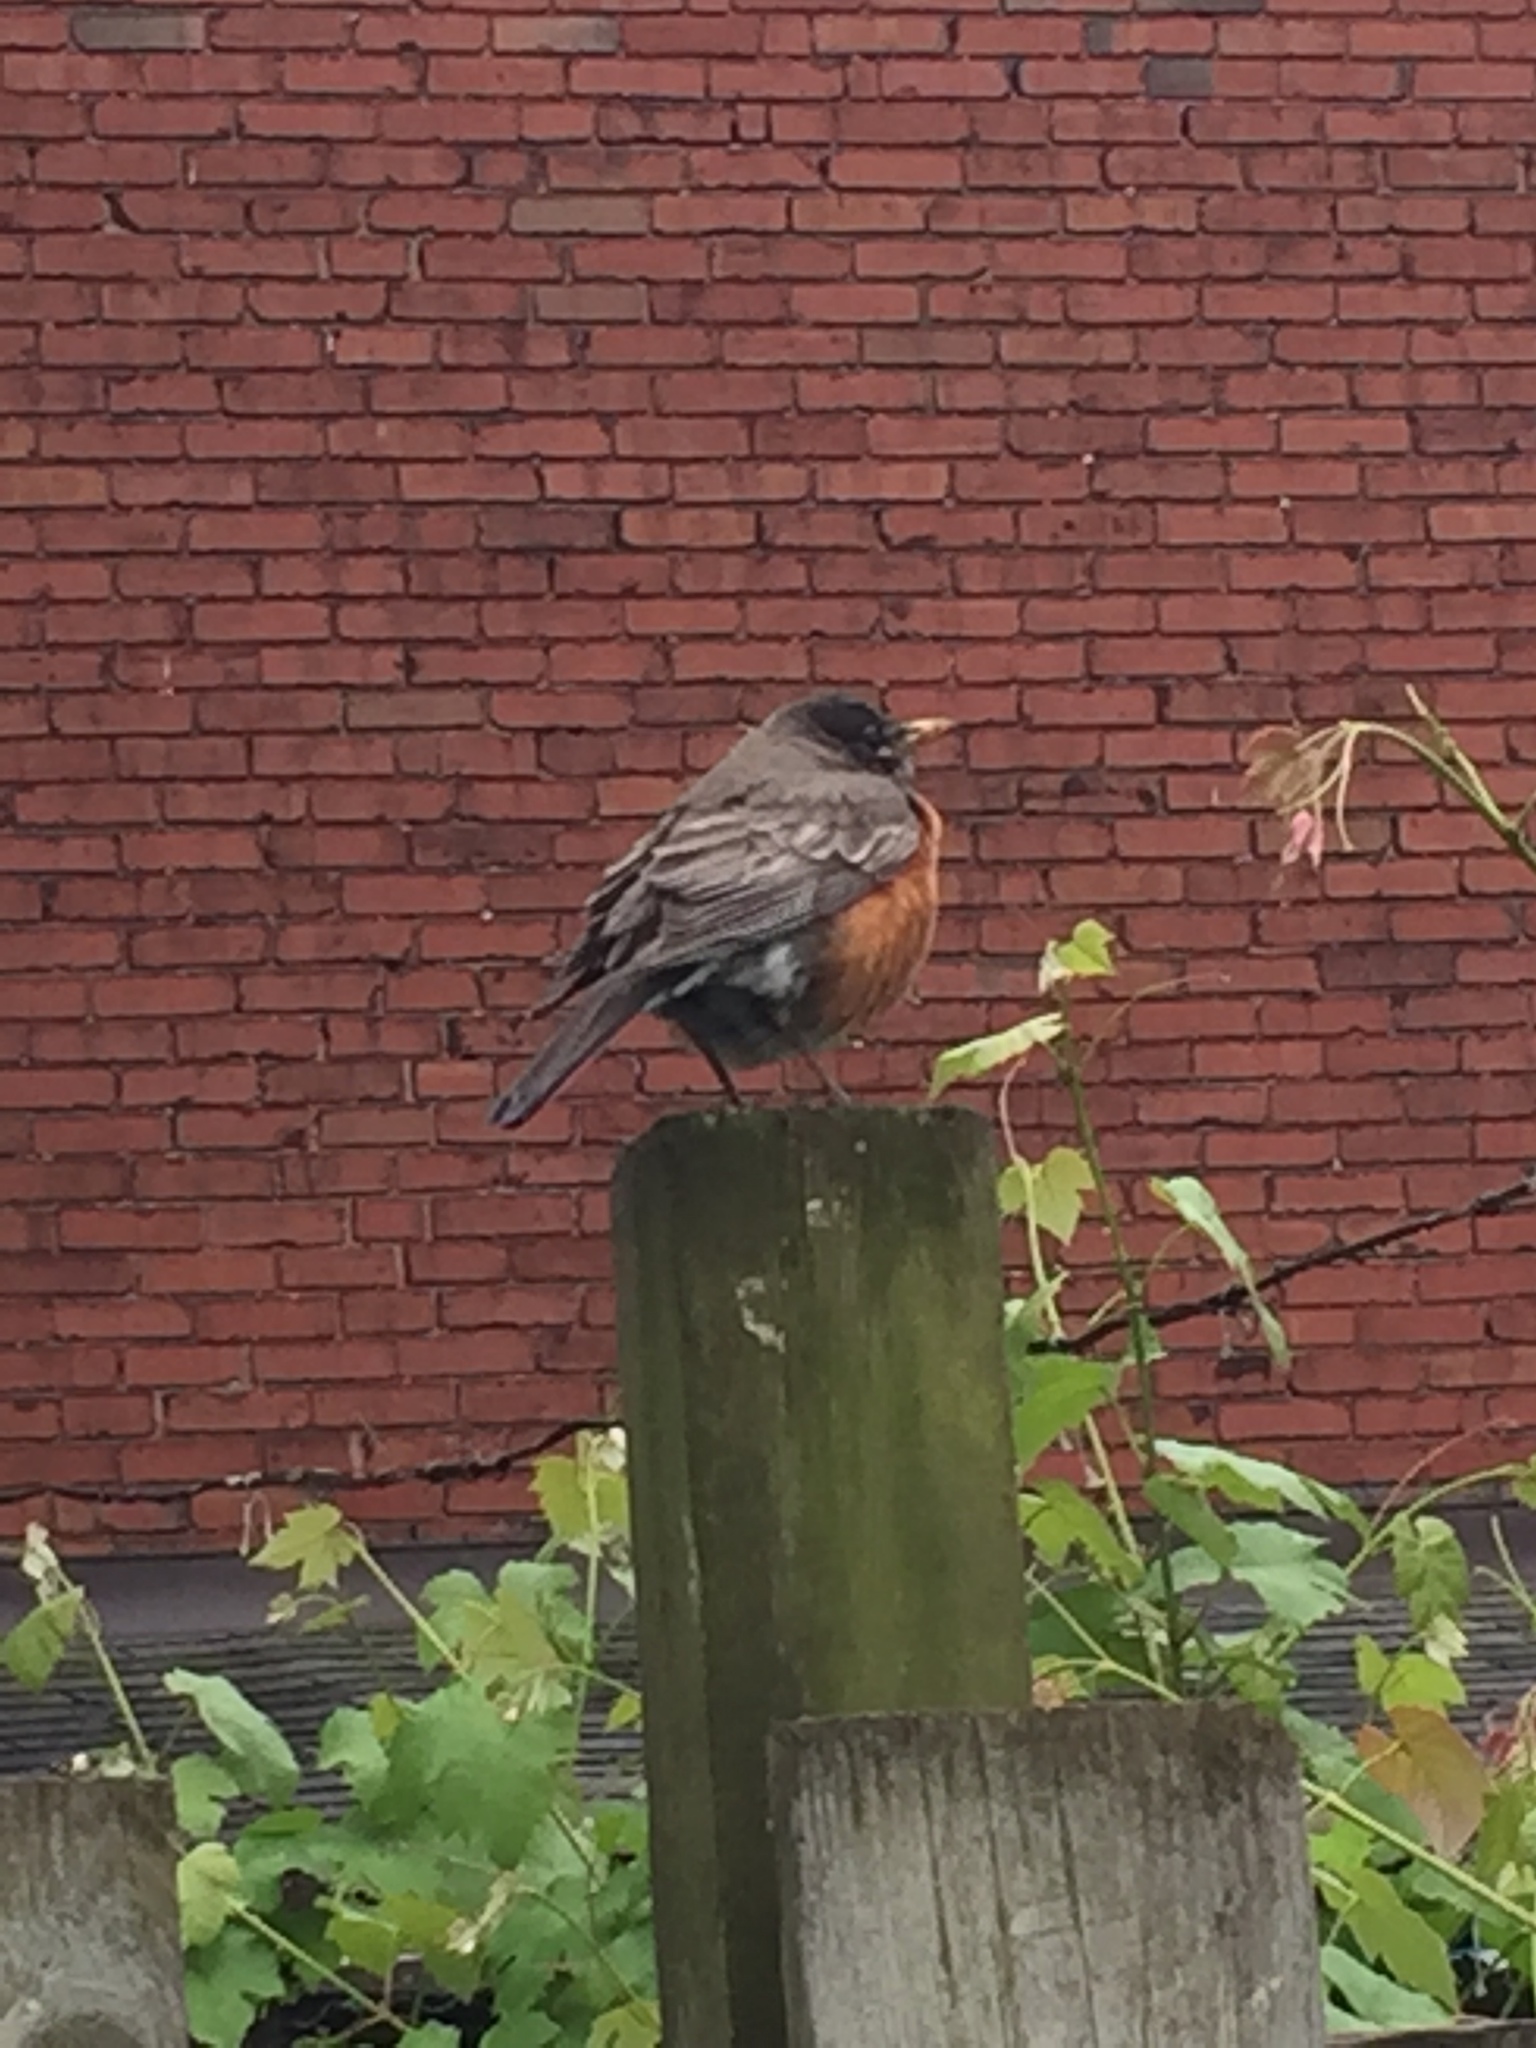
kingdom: Animalia
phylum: Chordata
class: Aves
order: Passeriformes
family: Turdidae
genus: Turdus
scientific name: Turdus migratorius
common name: American robin
